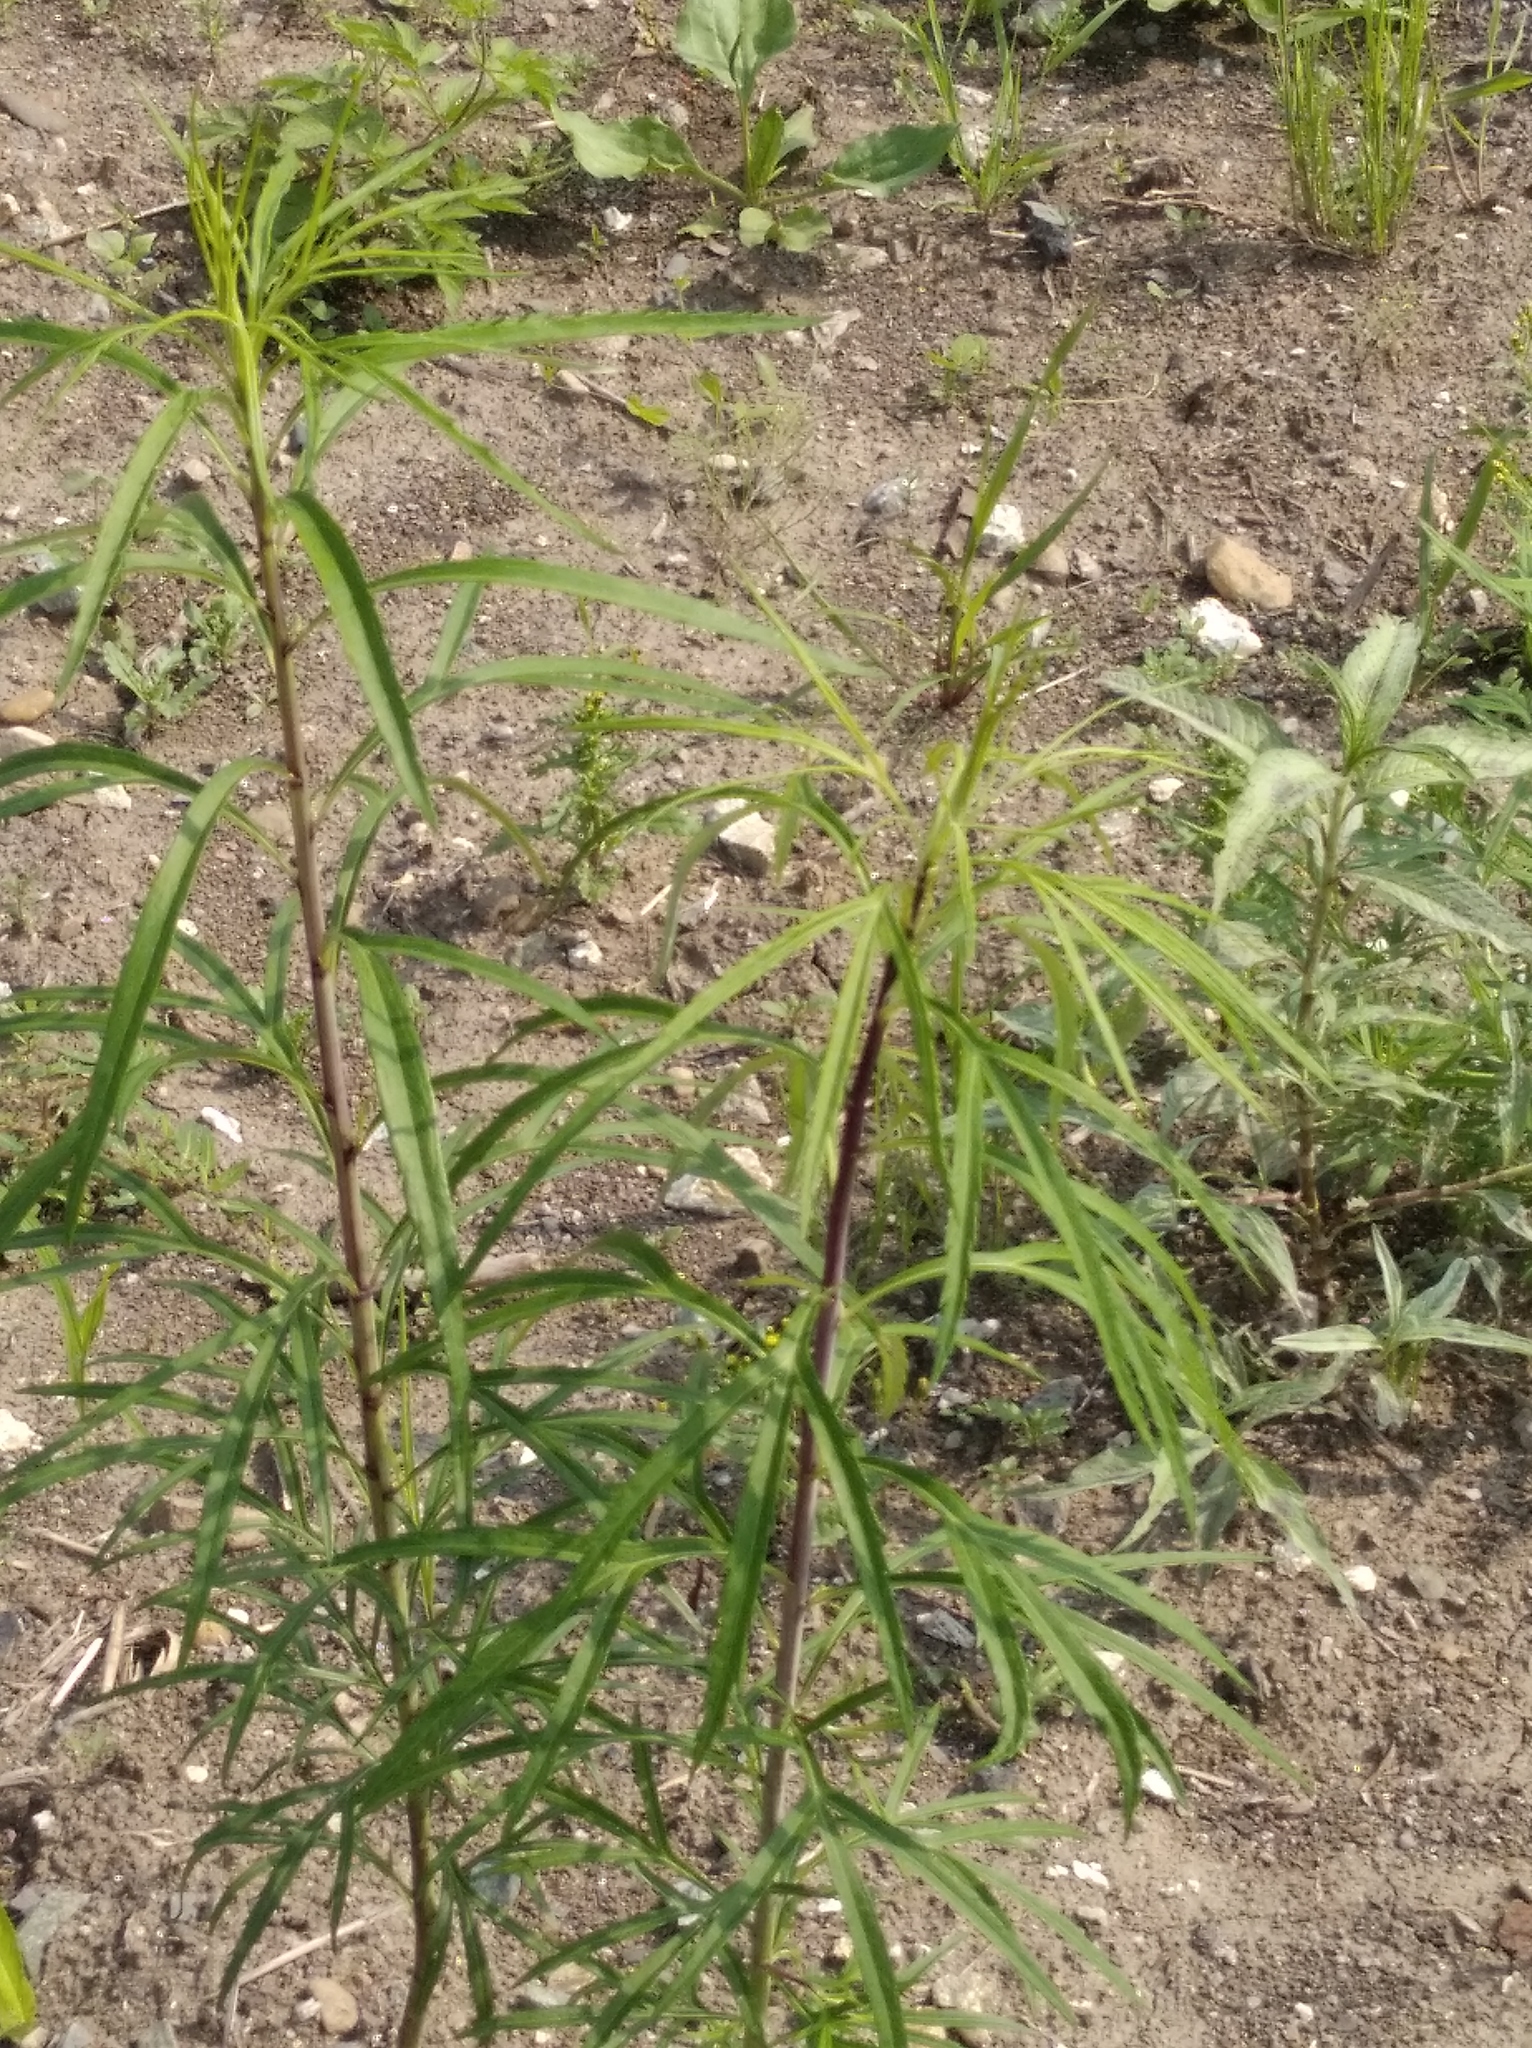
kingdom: Plantae
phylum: Tracheophyta
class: Magnoliopsida
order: Asterales
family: Asteraceae
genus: Artemisia
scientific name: Artemisia selengensis
